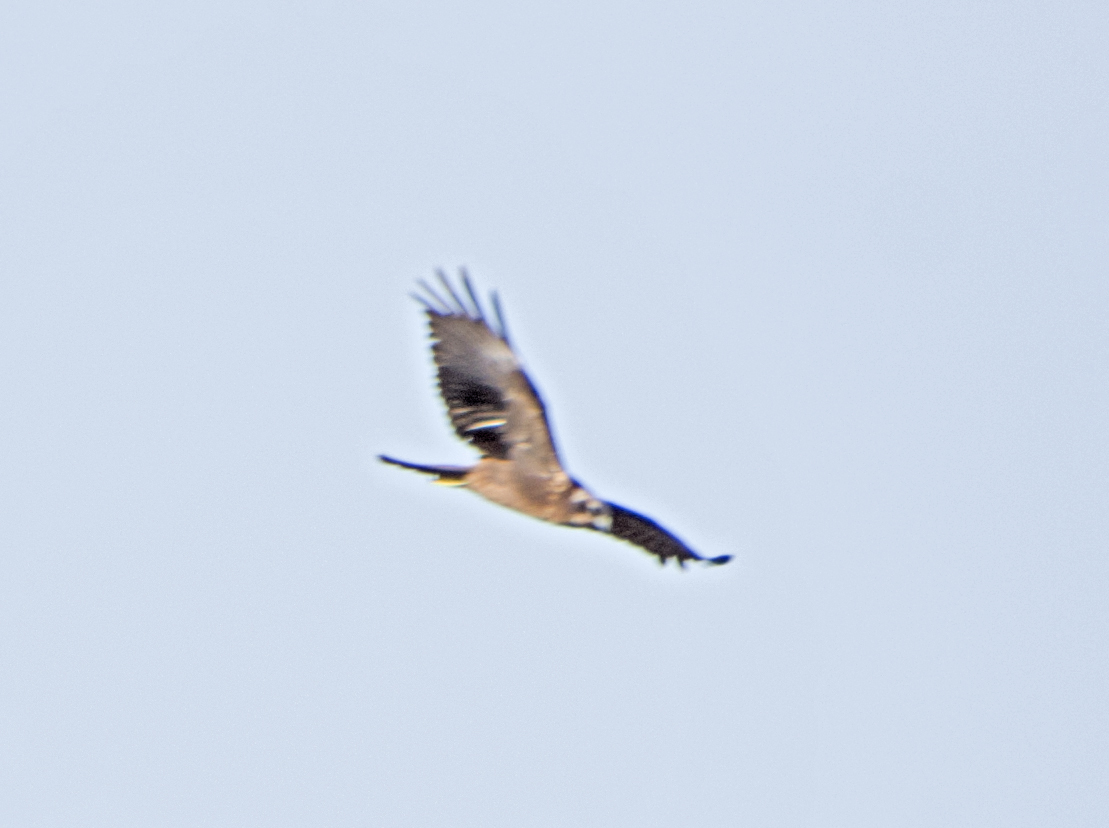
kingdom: Animalia
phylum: Chordata
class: Aves
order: Accipitriformes
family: Accipitridae
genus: Circus
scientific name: Circus aeruginosus
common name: Western marsh harrier
